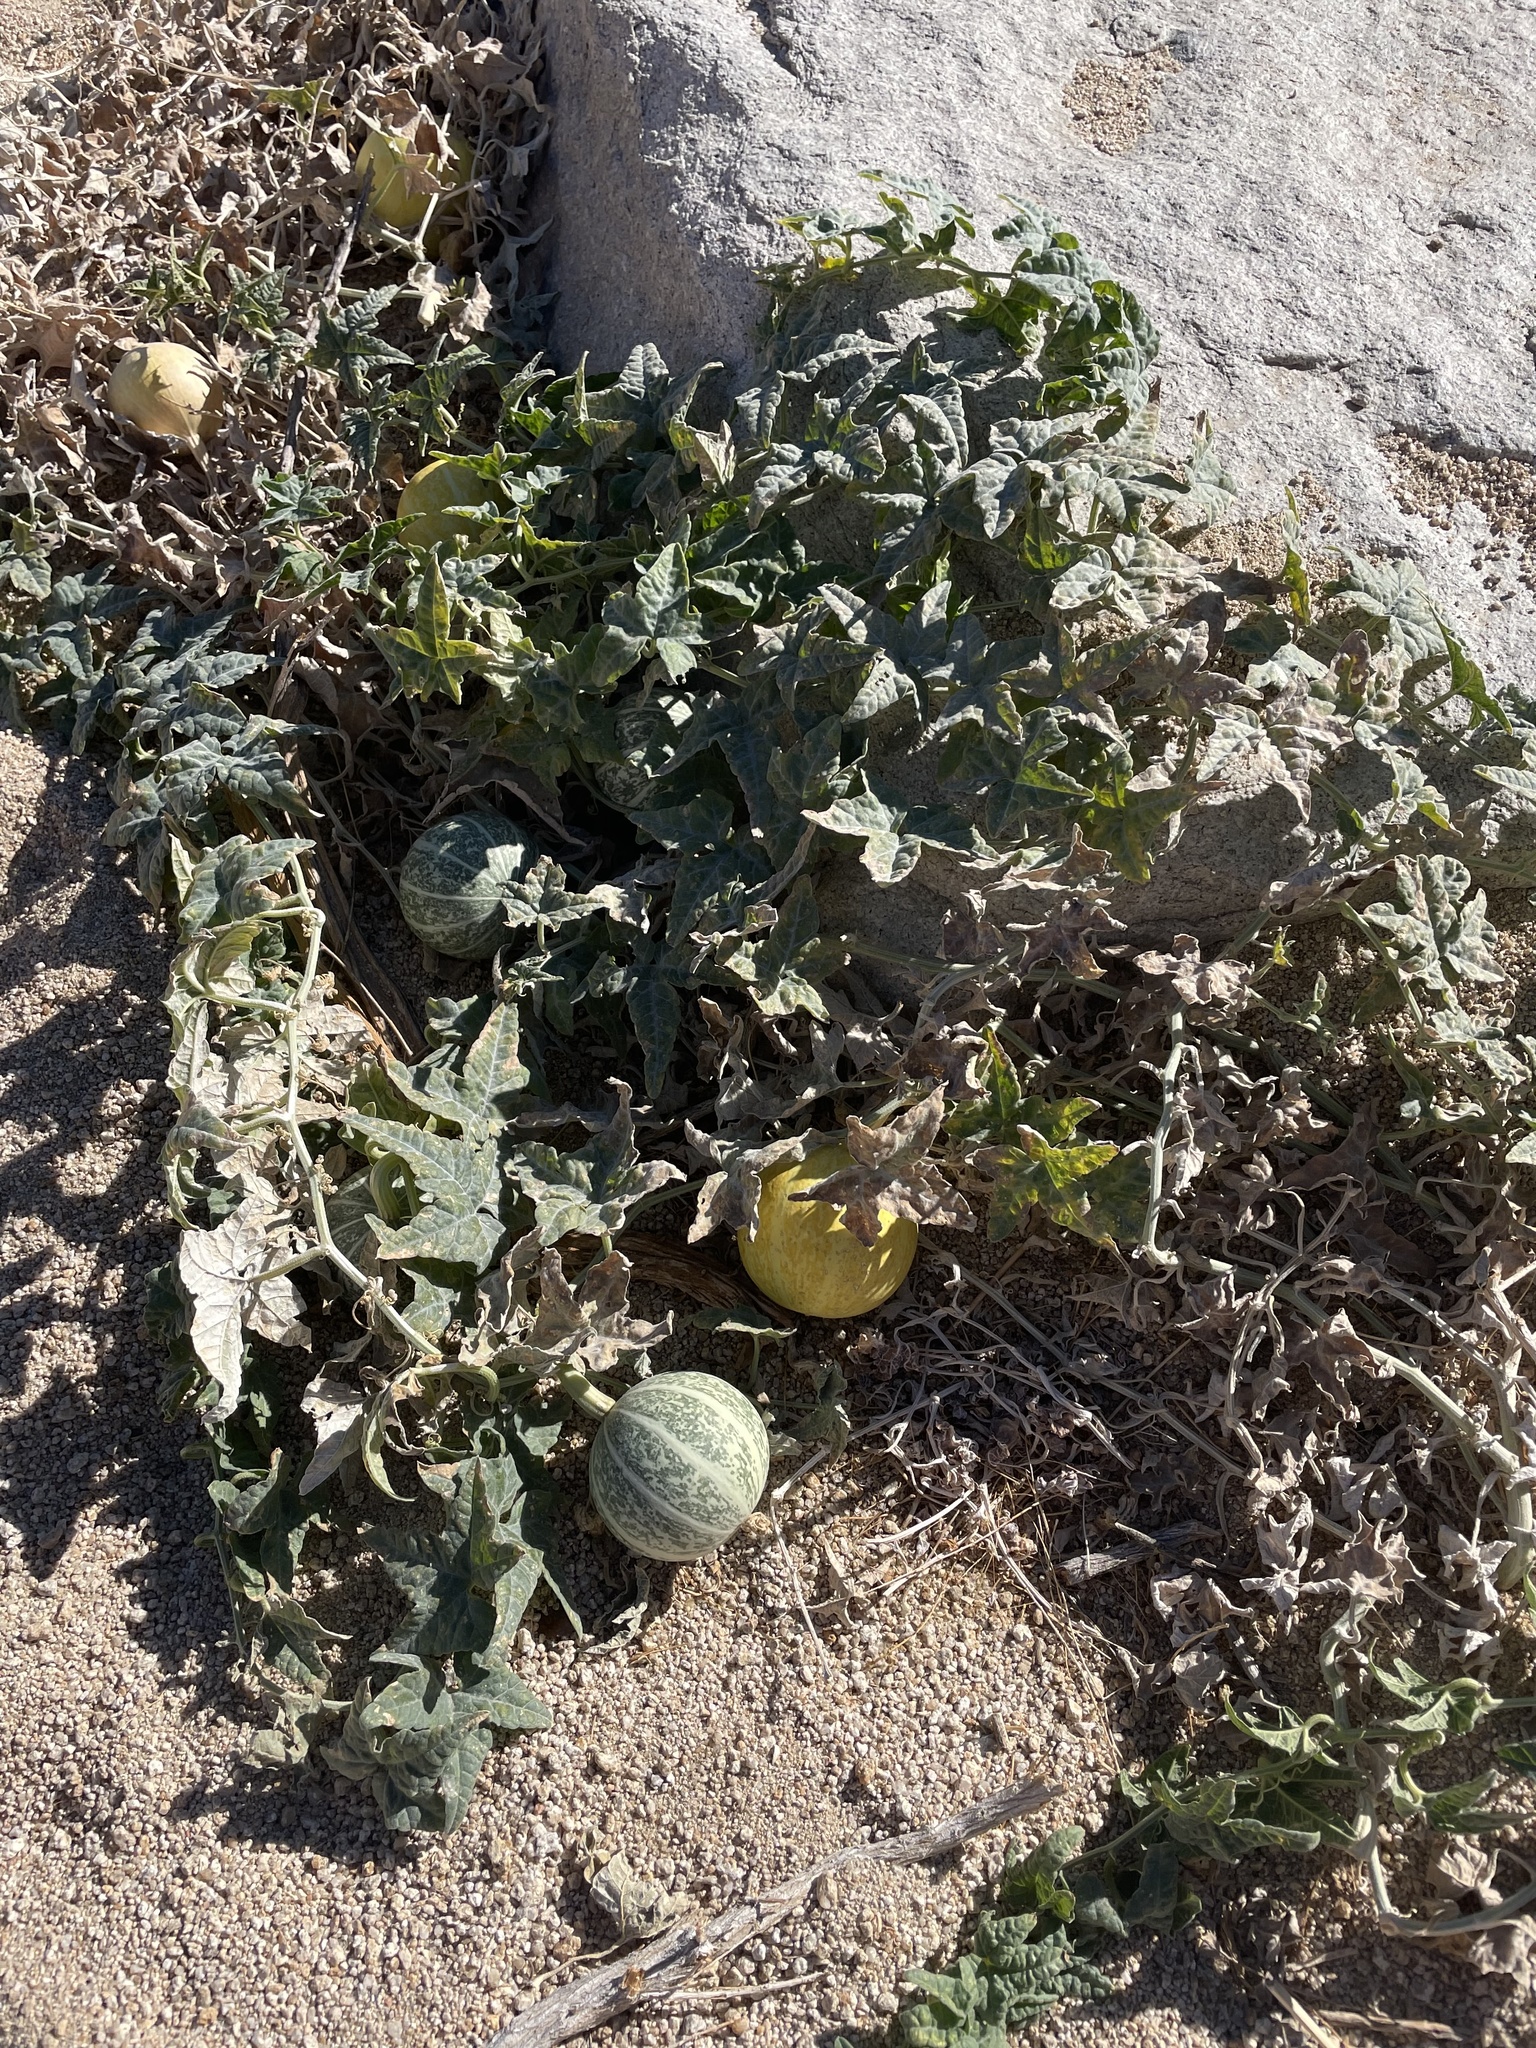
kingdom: Plantae
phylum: Tracheophyta
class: Magnoliopsida
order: Cucurbitales
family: Cucurbitaceae
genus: Cucurbita
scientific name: Cucurbita palmata
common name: Coyote-melon
